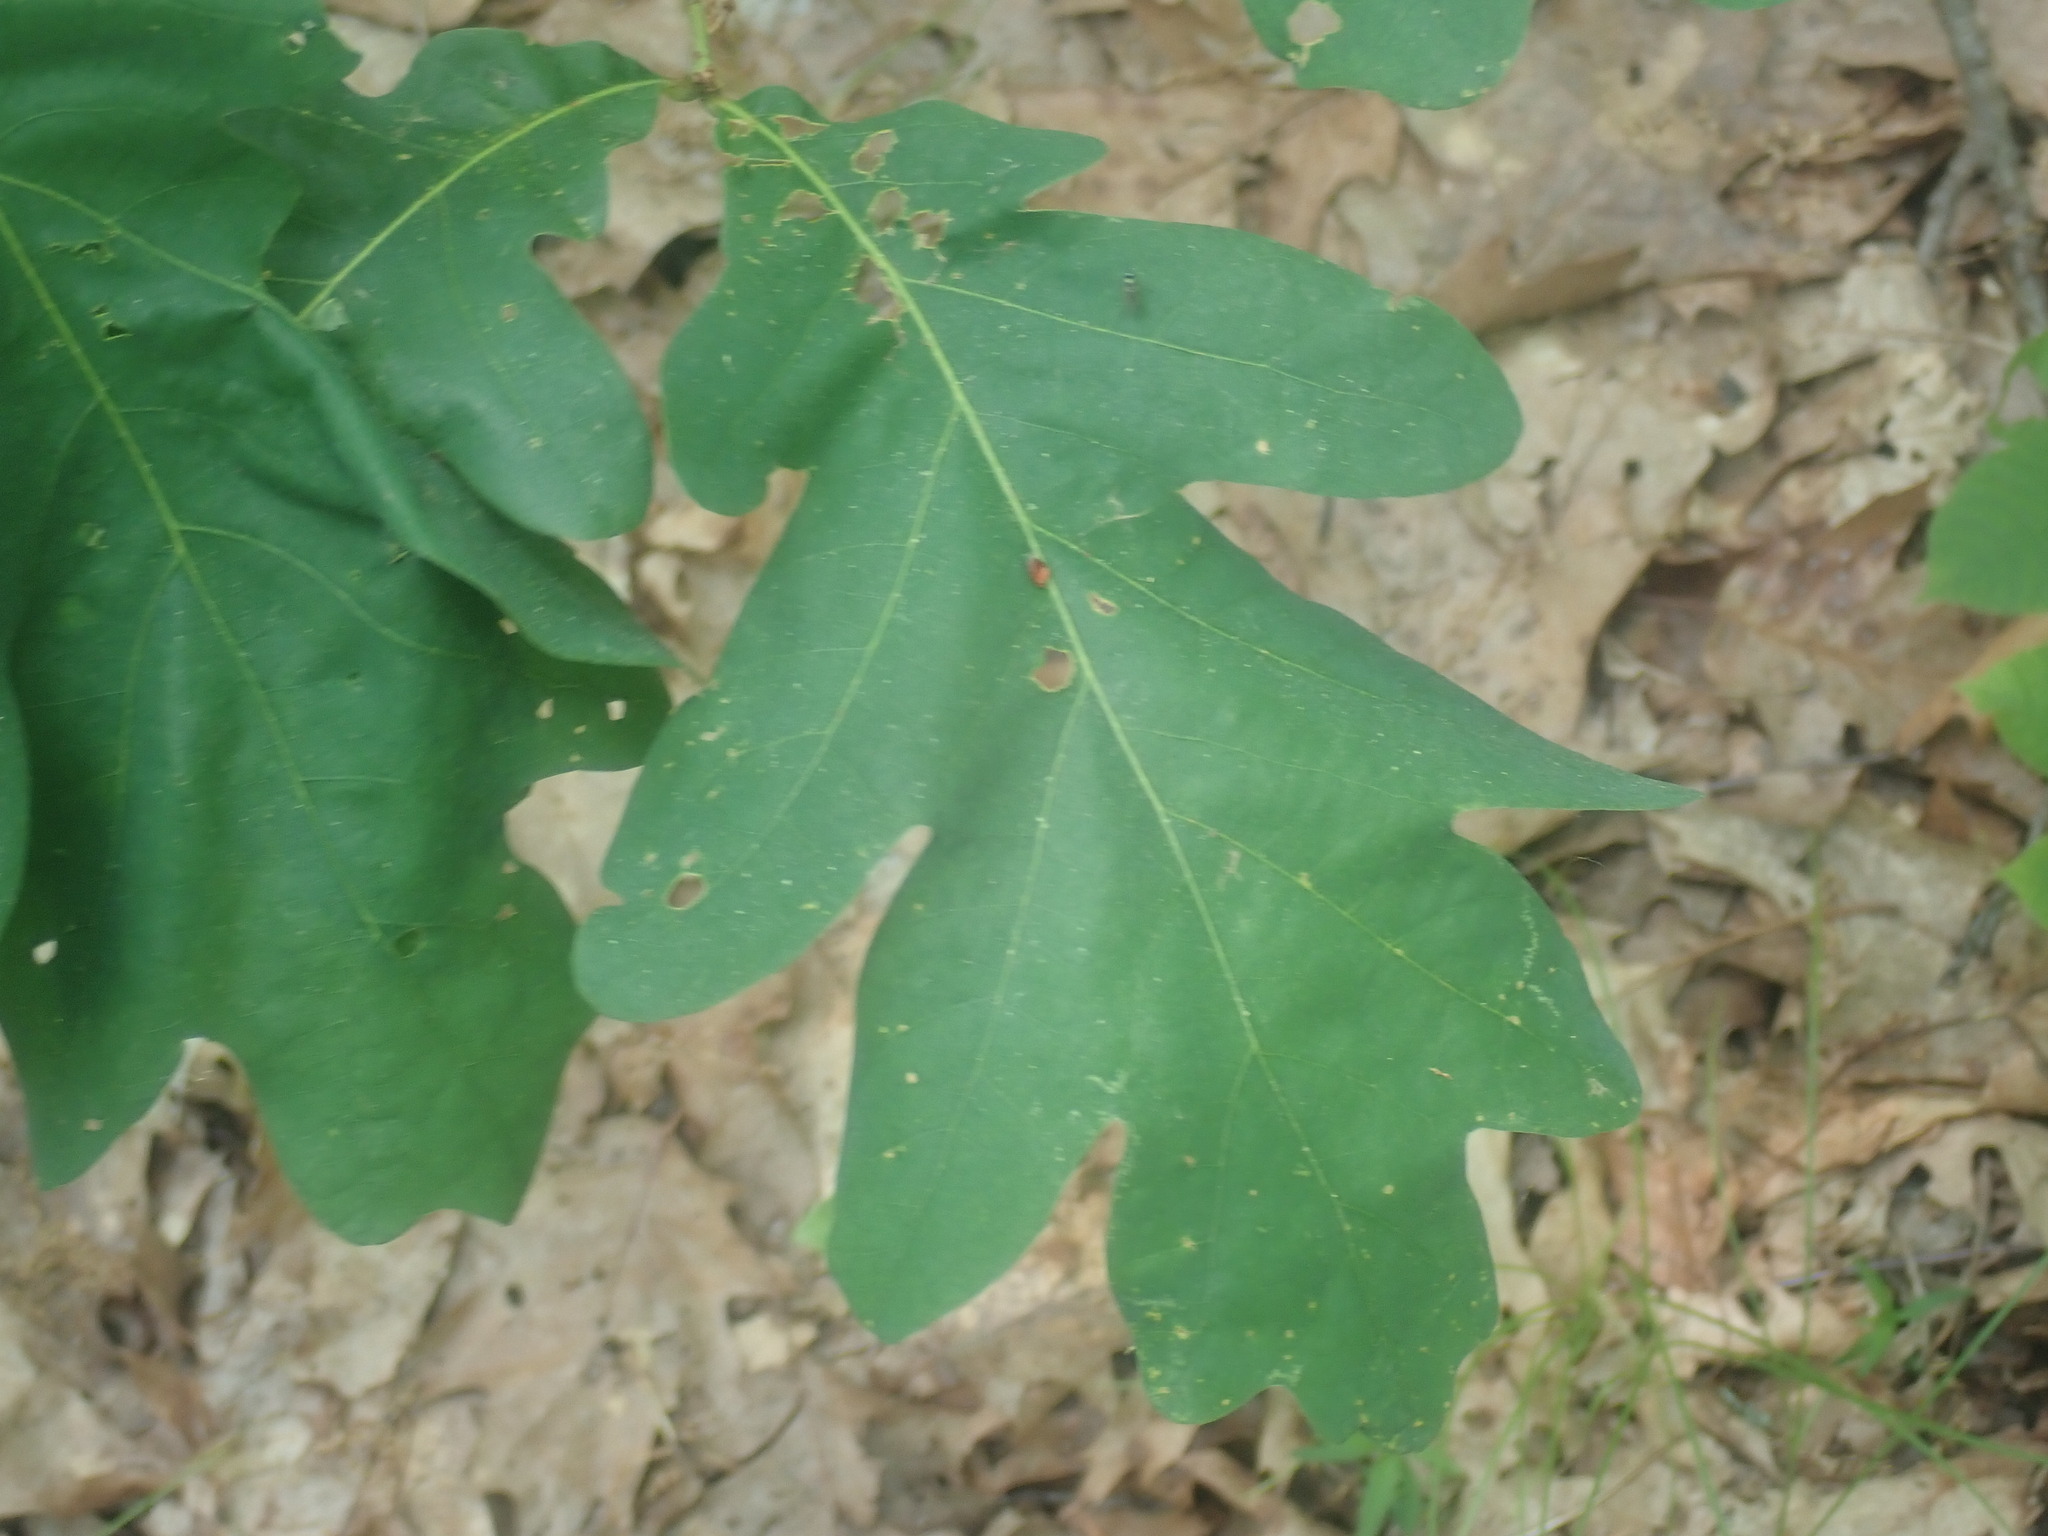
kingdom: Plantae
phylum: Tracheophyta
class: Magnoliopsida
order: Fagales
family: Fagaceae
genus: Quercus
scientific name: Quercus alba
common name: White oak
